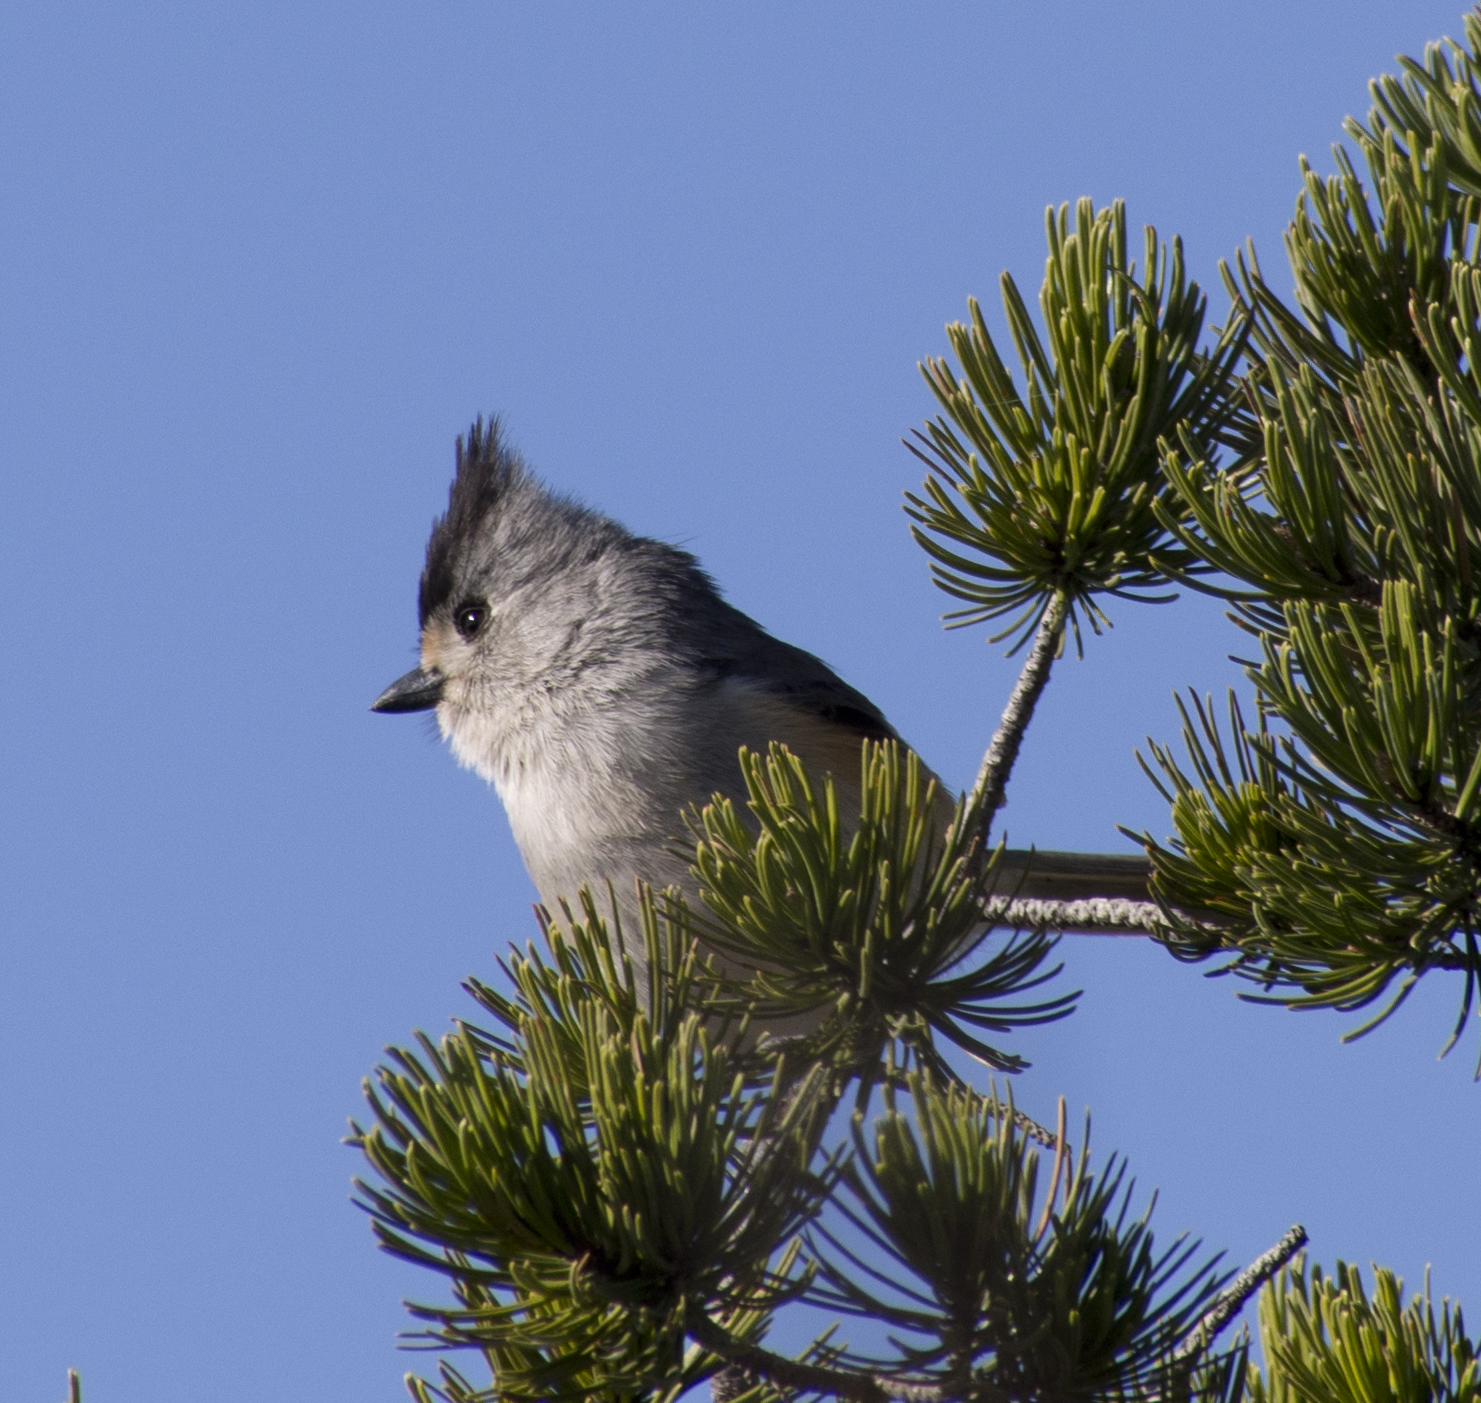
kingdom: Animalia
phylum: Chordata
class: Aves
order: Passeriformes
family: Paridae
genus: Baeolophus
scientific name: Baeolophus atricristatus
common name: Black-crested titmouse
